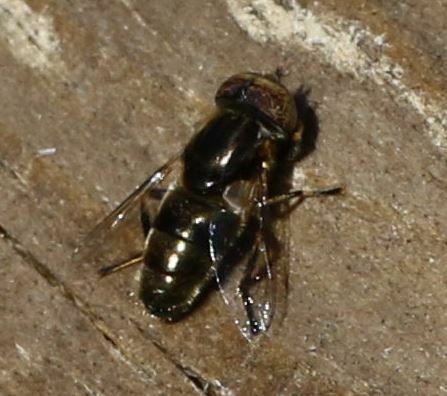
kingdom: Animalia
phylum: Arthropoda
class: Insecta
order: Diptera
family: Syrphidae
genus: Eristalinus
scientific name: Eristalinus aeneus
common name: Syrphid fly
